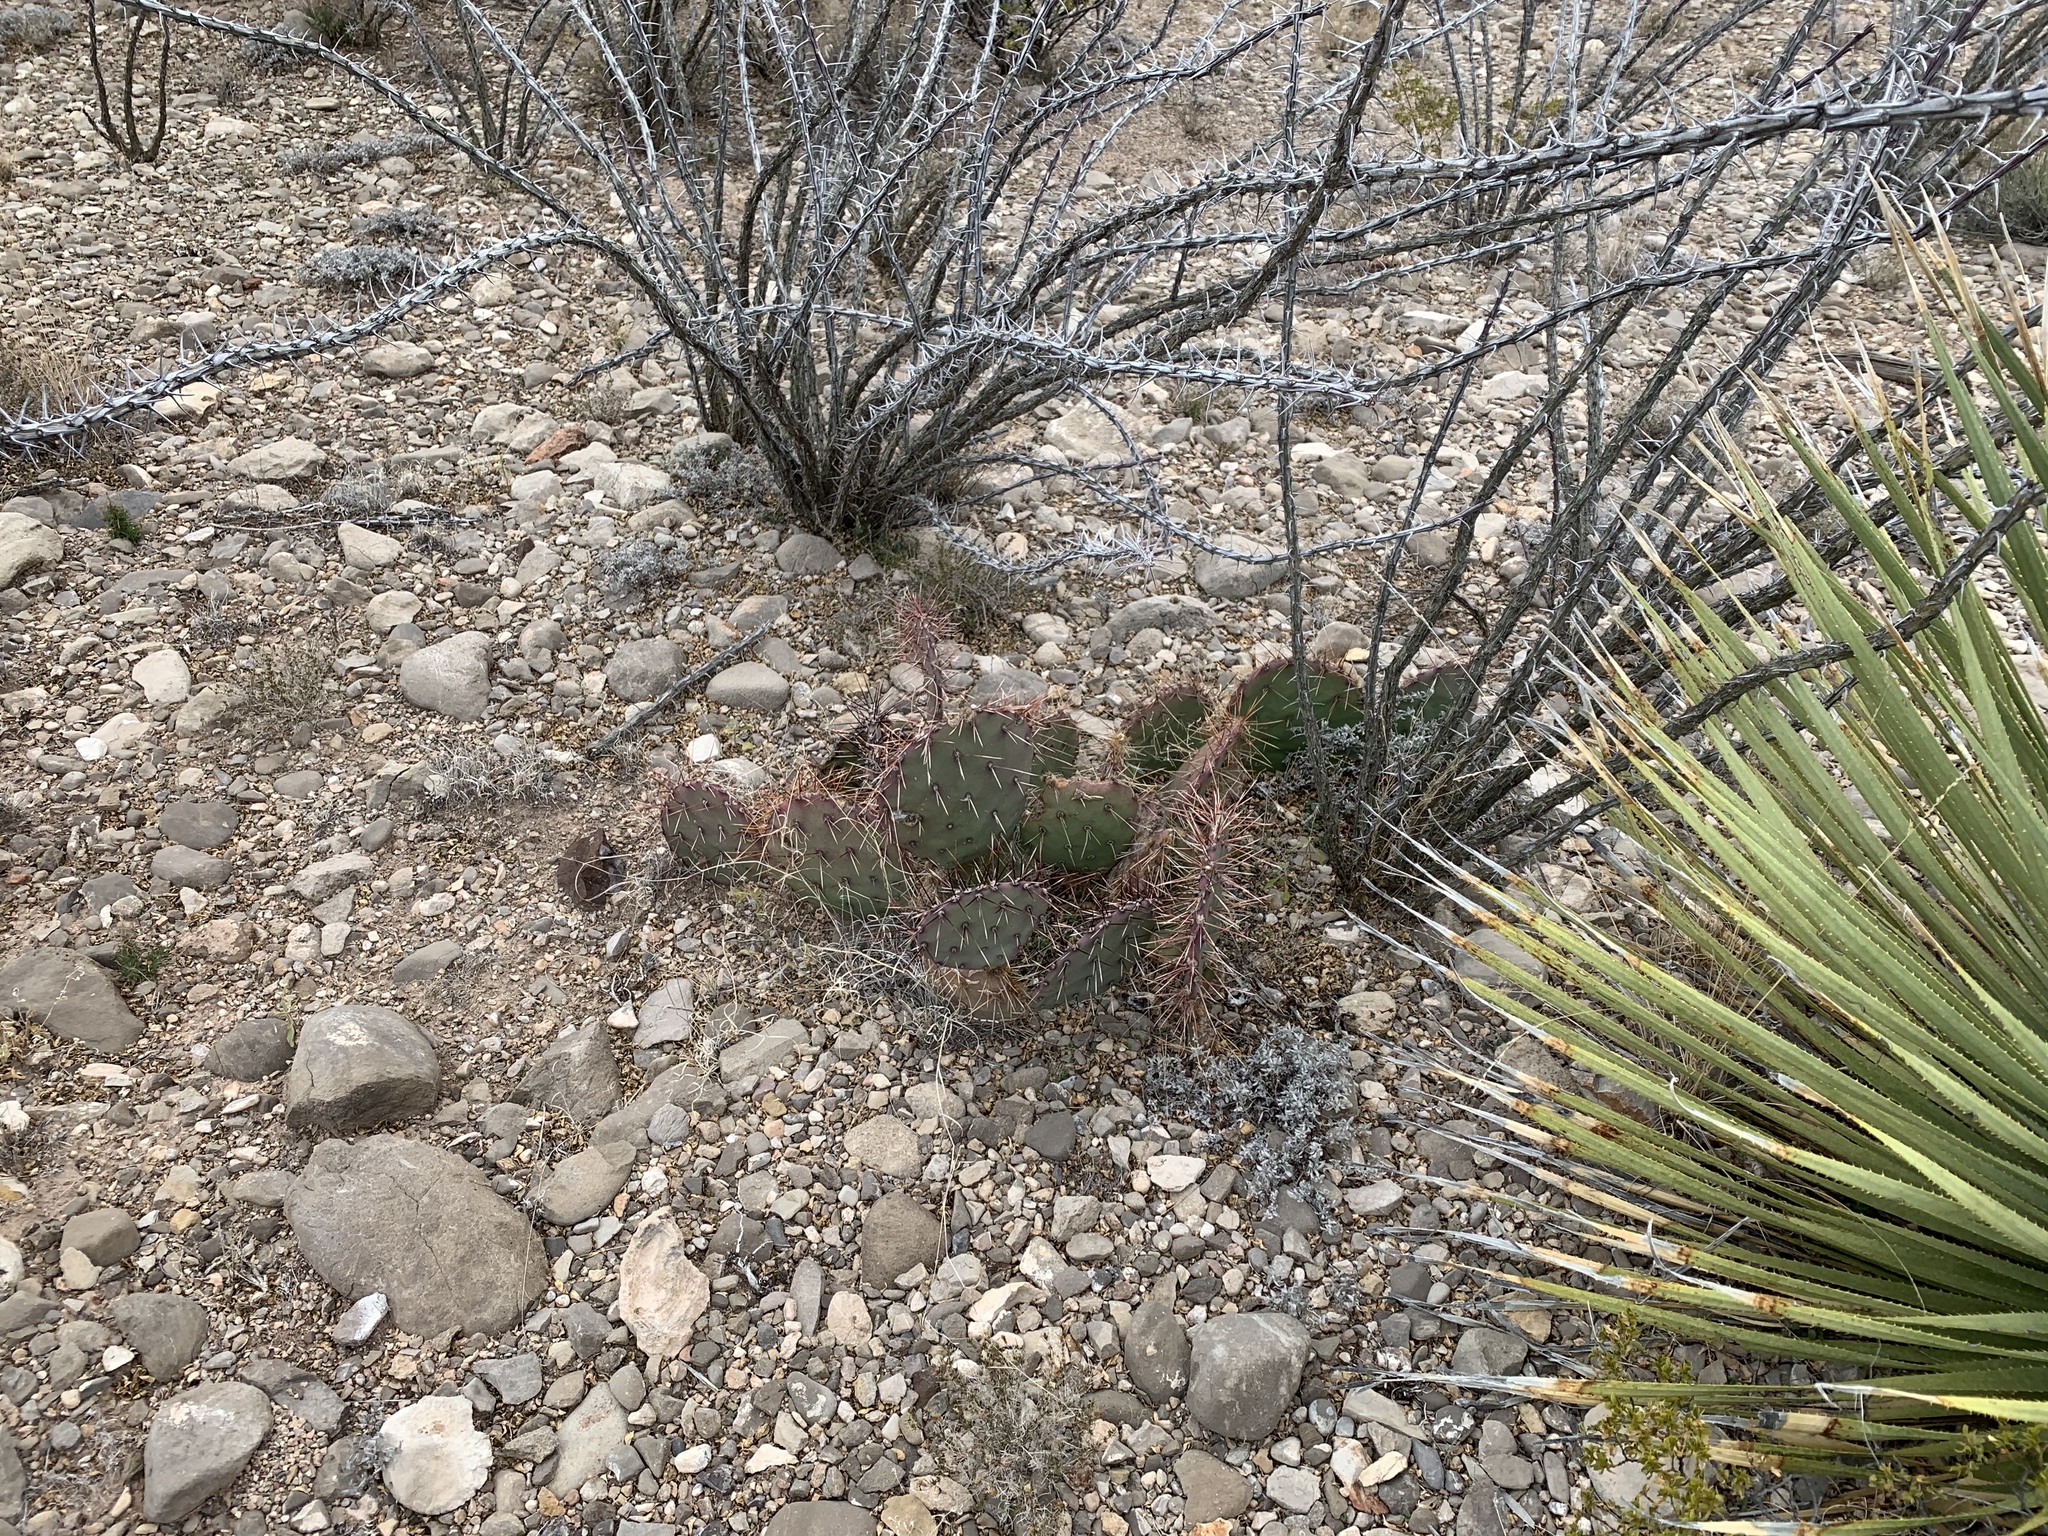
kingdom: Plantae
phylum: Tracheophyta
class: Magnoliopsida
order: Caryophyllales
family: Cactaceae
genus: Opuntia
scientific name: Opuntia macrocentra
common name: Purple prickly-pear
